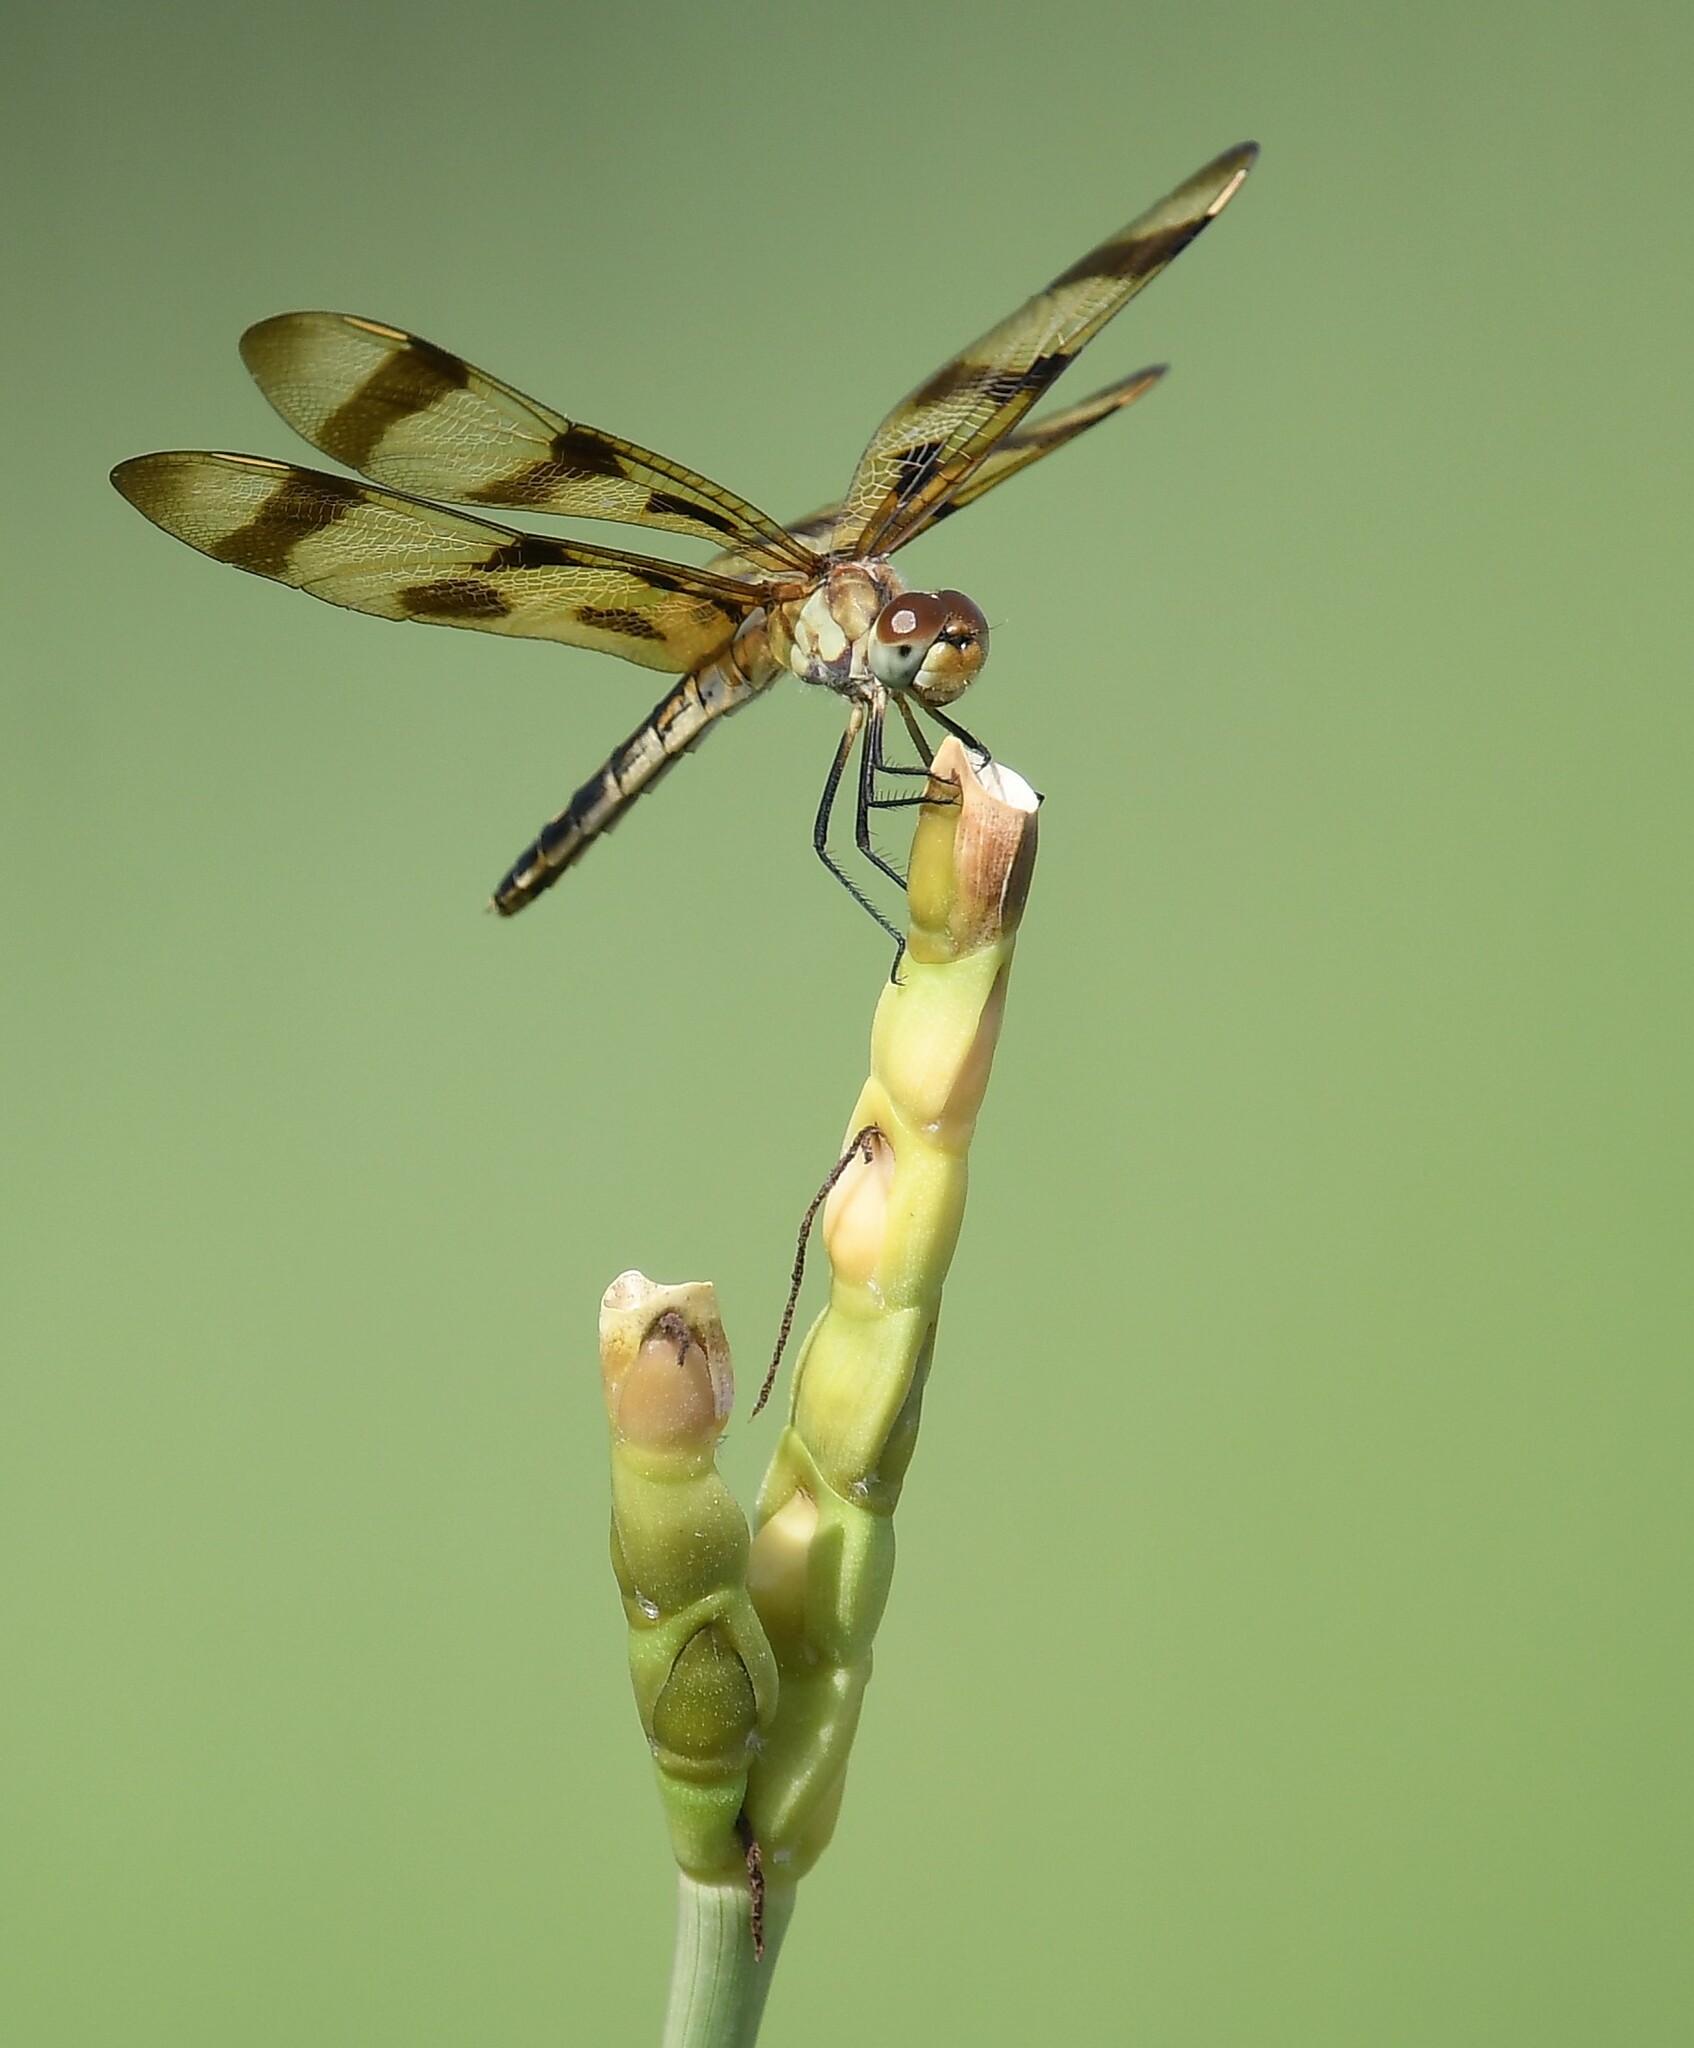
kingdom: Animalia
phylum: Arthropoda
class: Insecta
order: Odonata
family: Libellulidae
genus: Celithemis
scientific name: Celithemis eponina
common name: Halloween pennant
